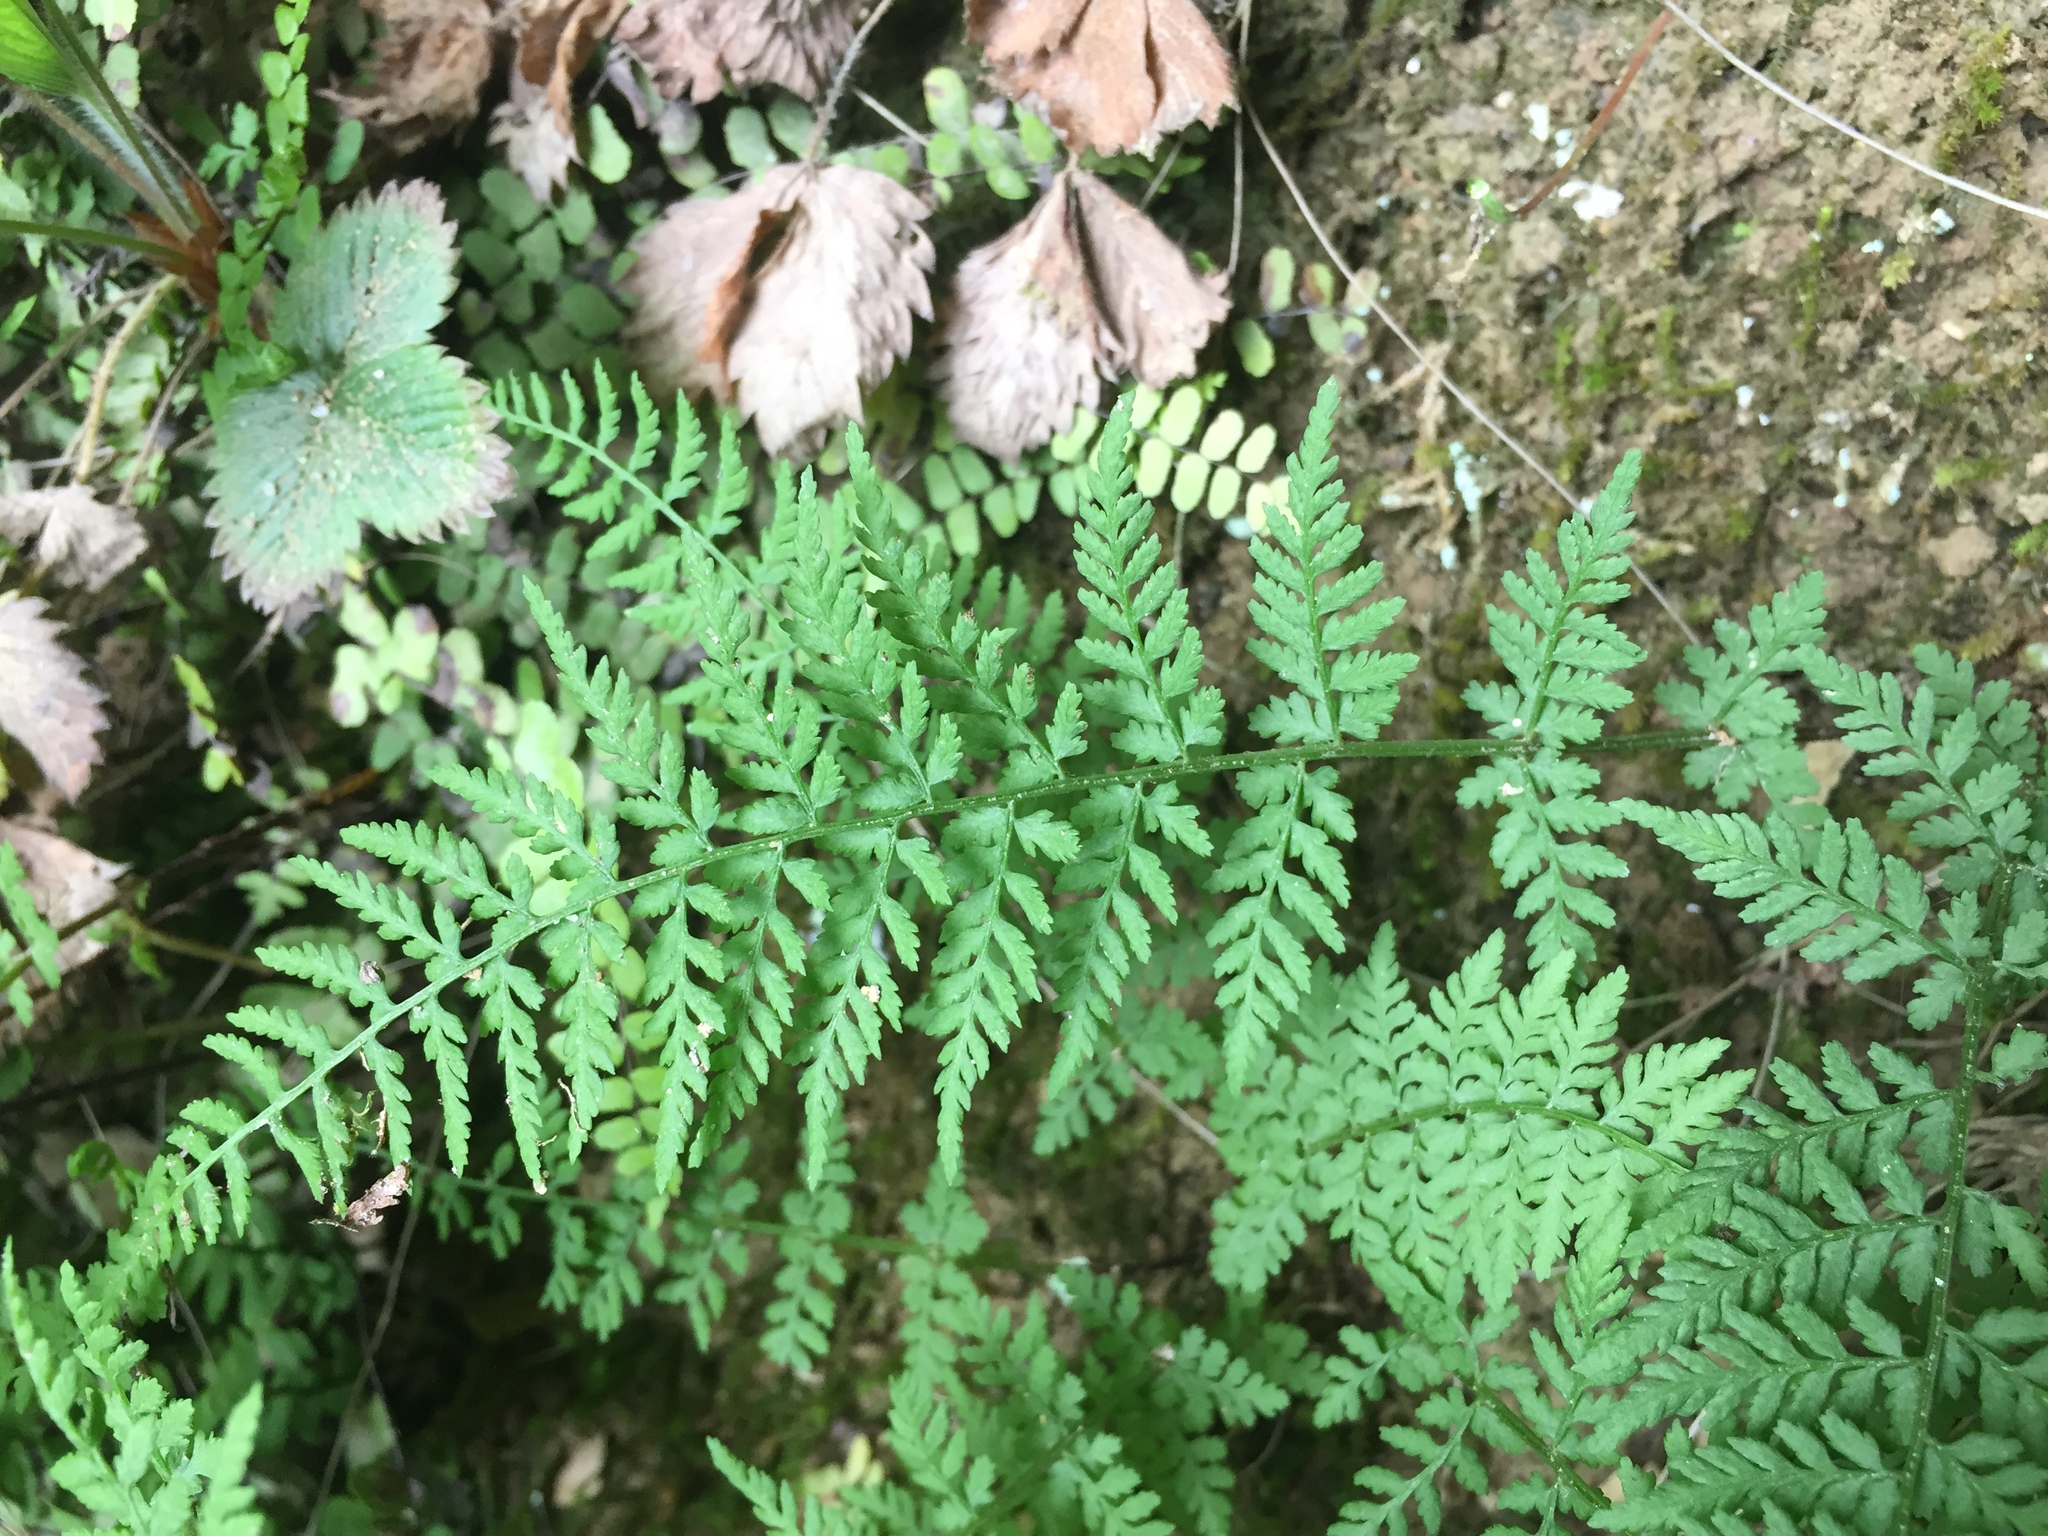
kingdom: Plantae
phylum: Tracheophyta
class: Polypodiopsida
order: Polypodiales
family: Cystopteridaceae
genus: Cystopteris
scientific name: Cystopteris fragilis
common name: Brittle bladder fern
